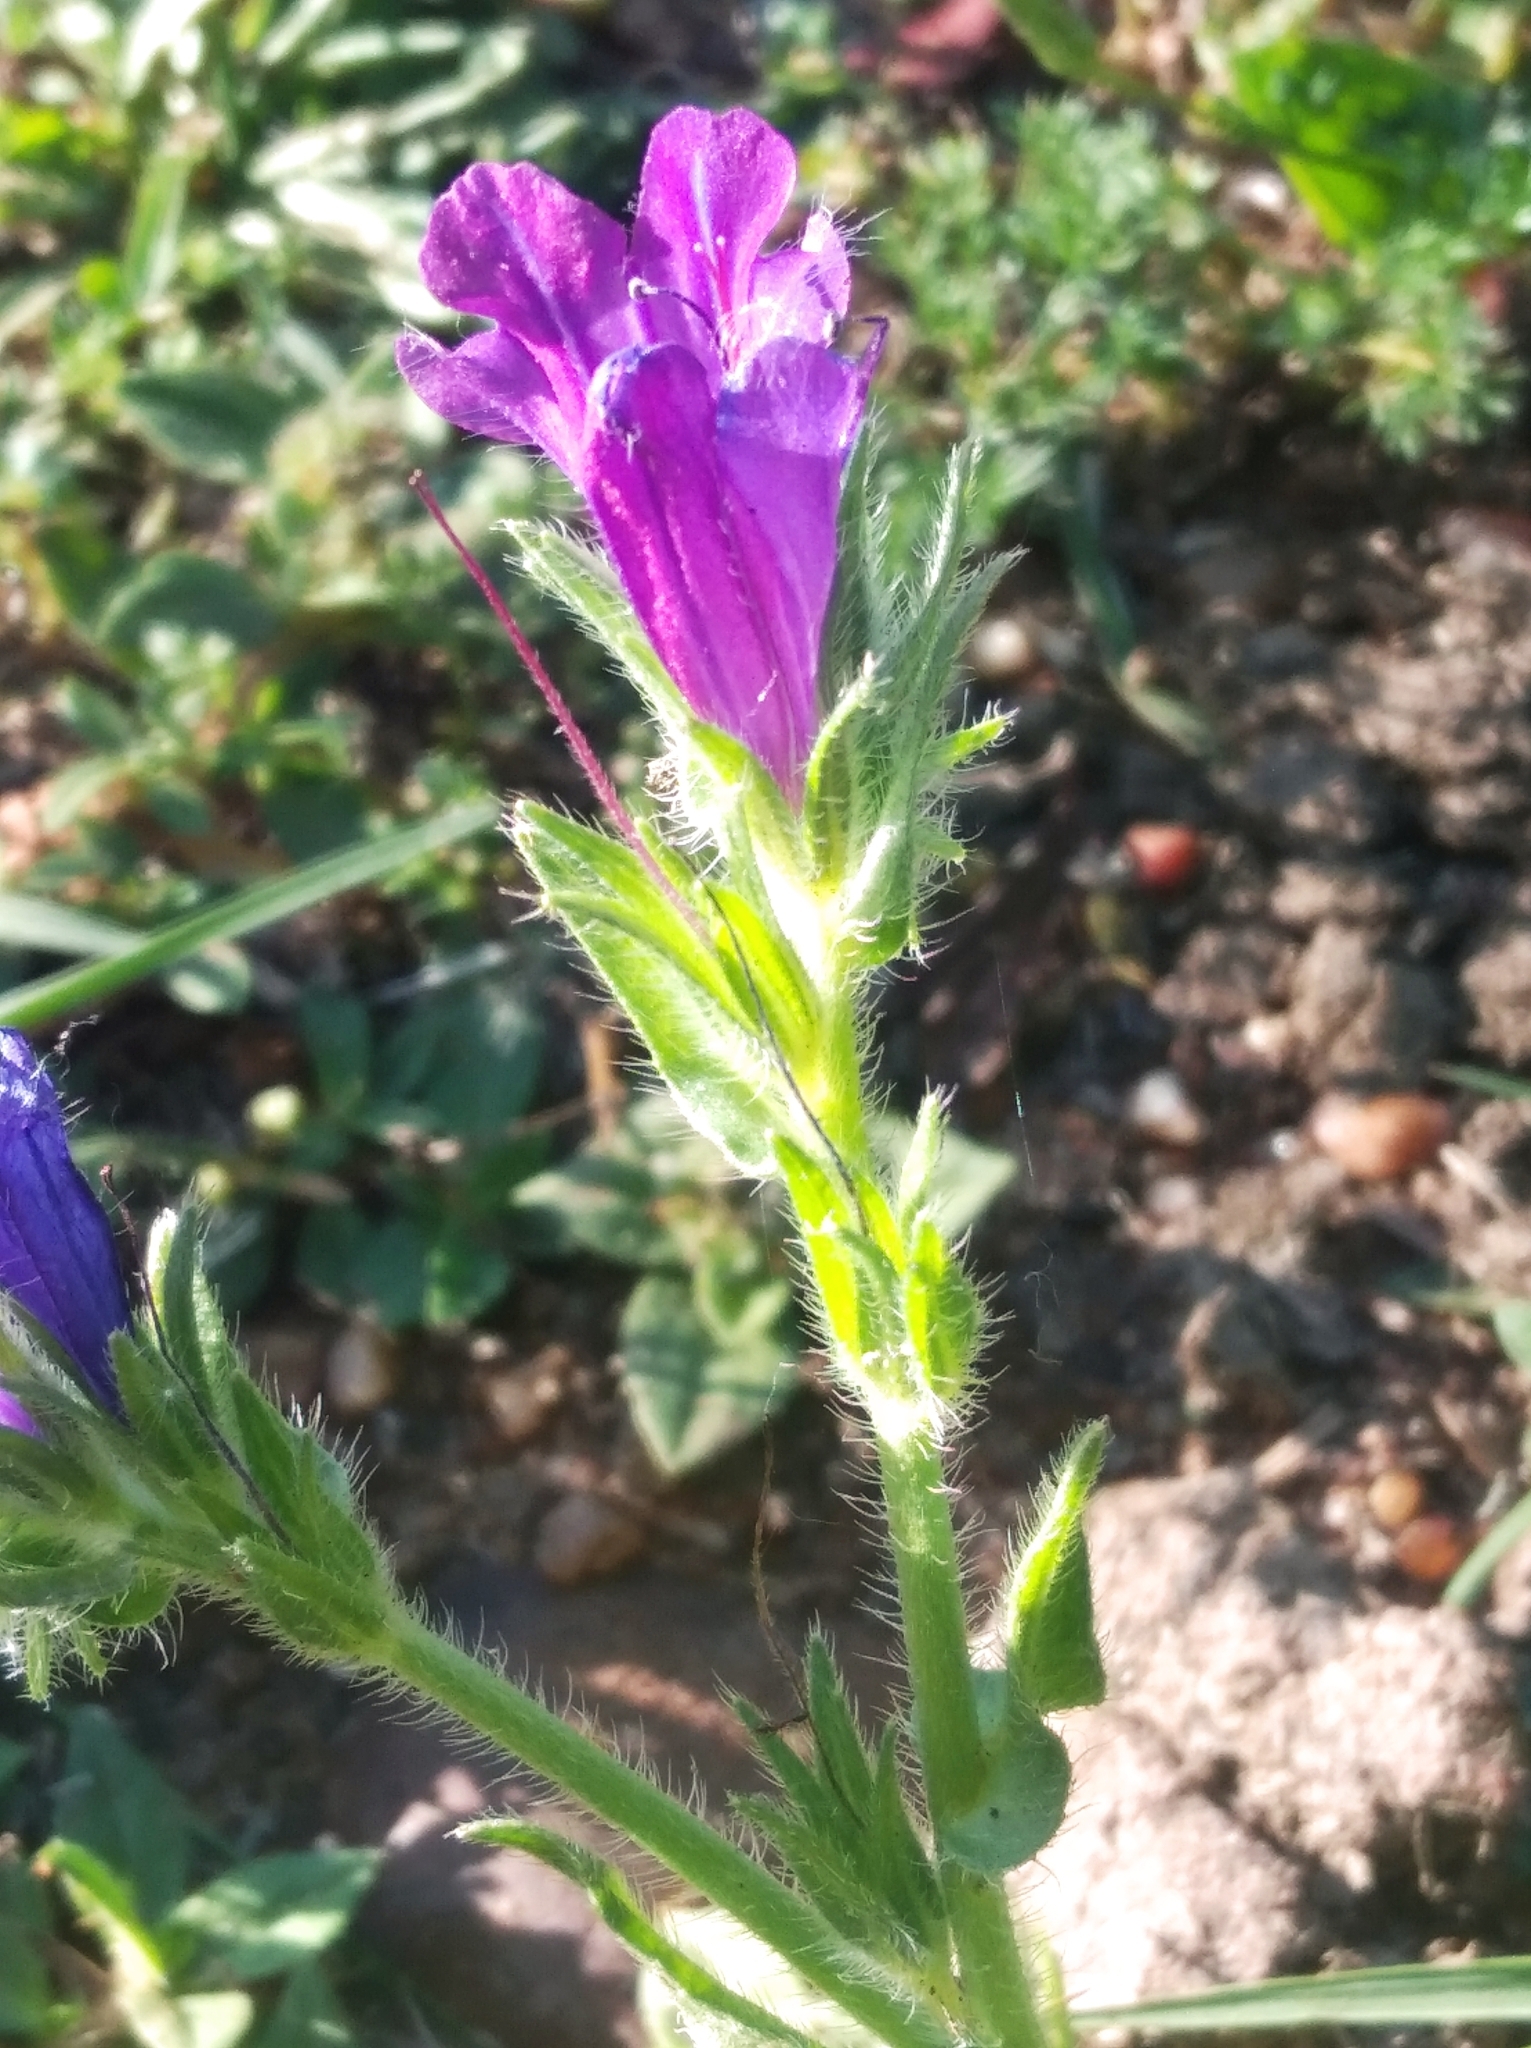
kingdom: Plantae
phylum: Tracheophyta
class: Magnoliopsida
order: Boraginales
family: Boraginaceae
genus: Echium
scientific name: Echium plantagineum
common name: Purple viper's-bugloss
